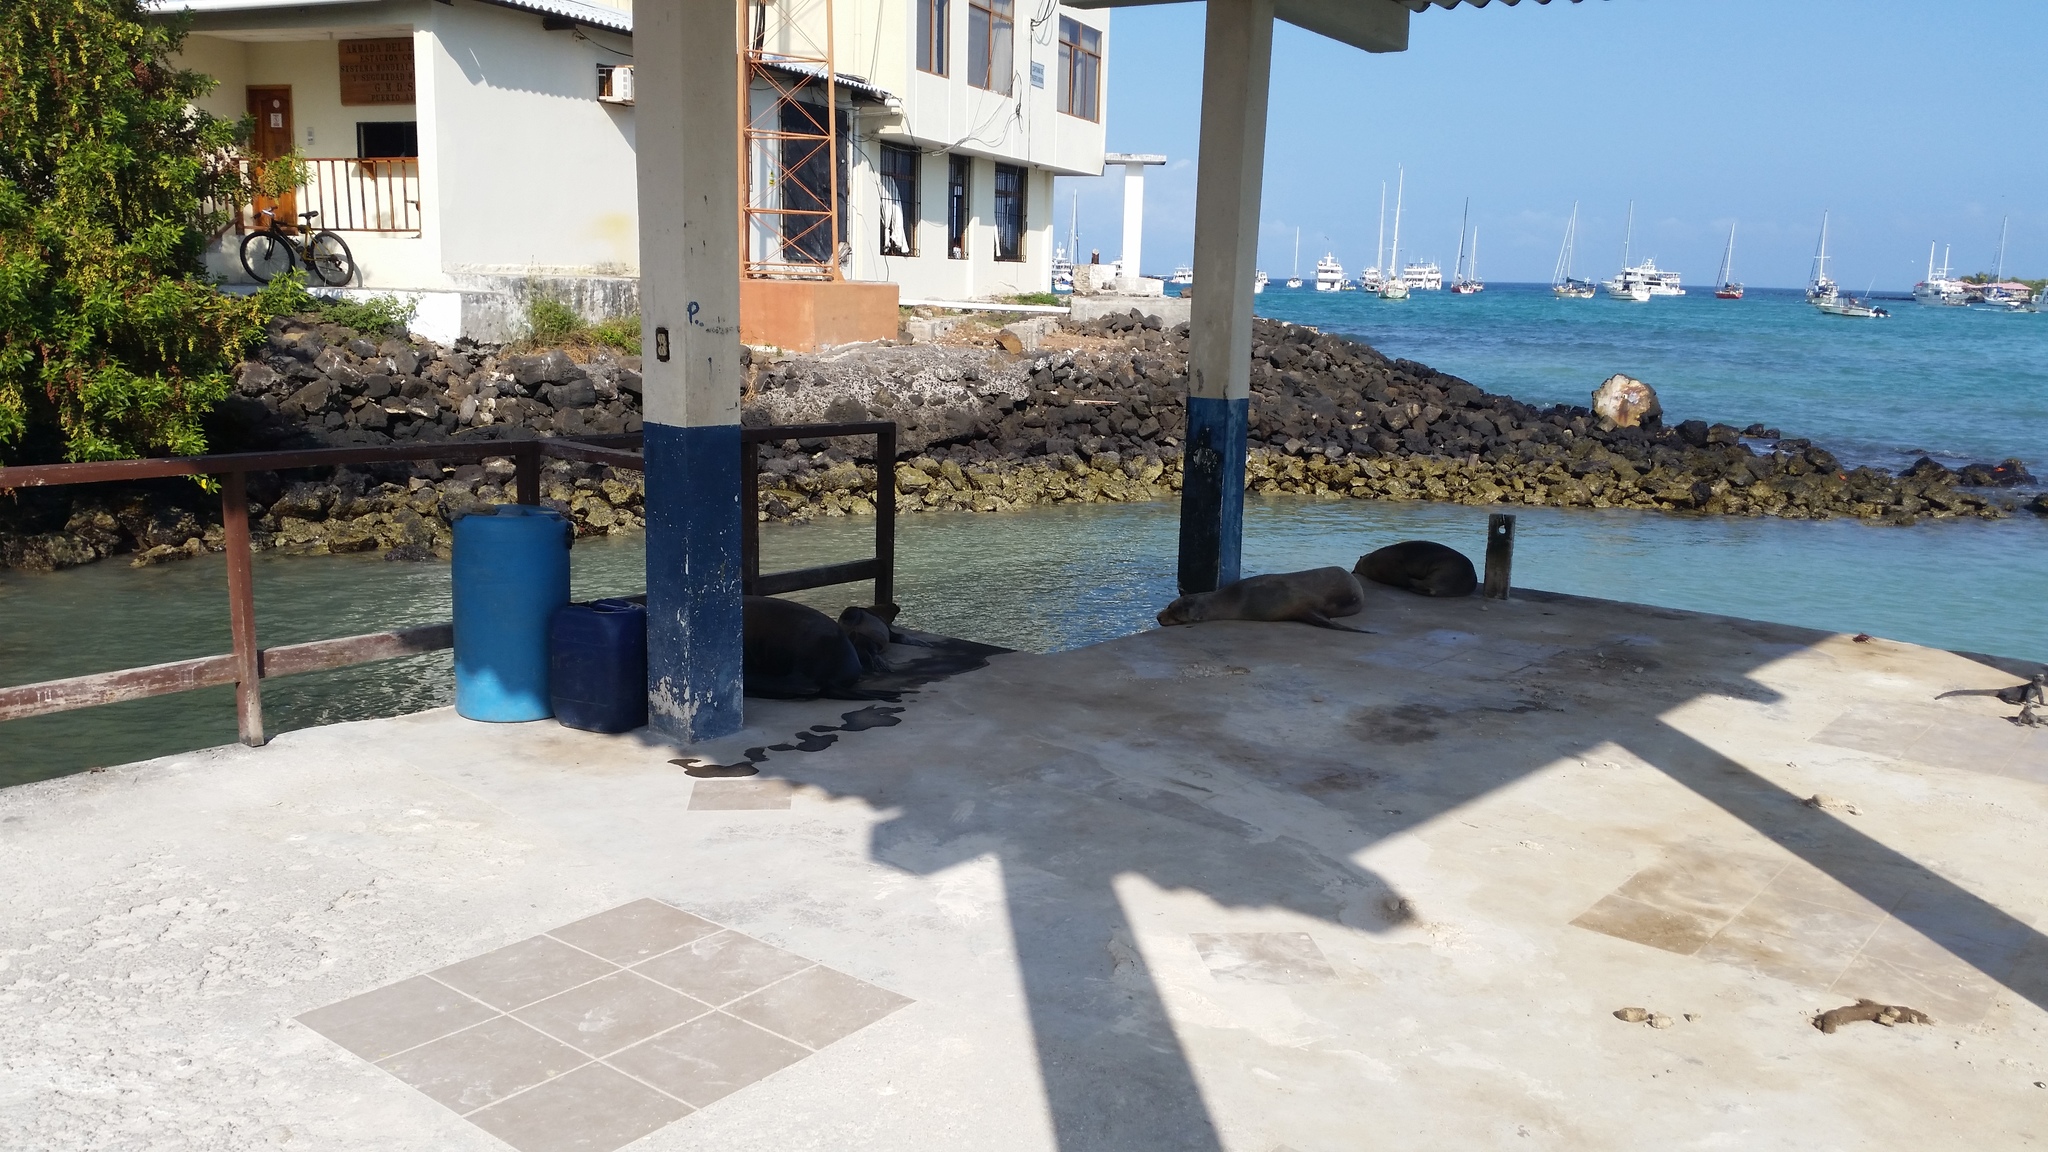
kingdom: Animalia
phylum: Chordata
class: Mammalia
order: Carnivora
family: Otariidae
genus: Zalophus
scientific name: Zalophus wollebaeki
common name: Galapagos sea lion
